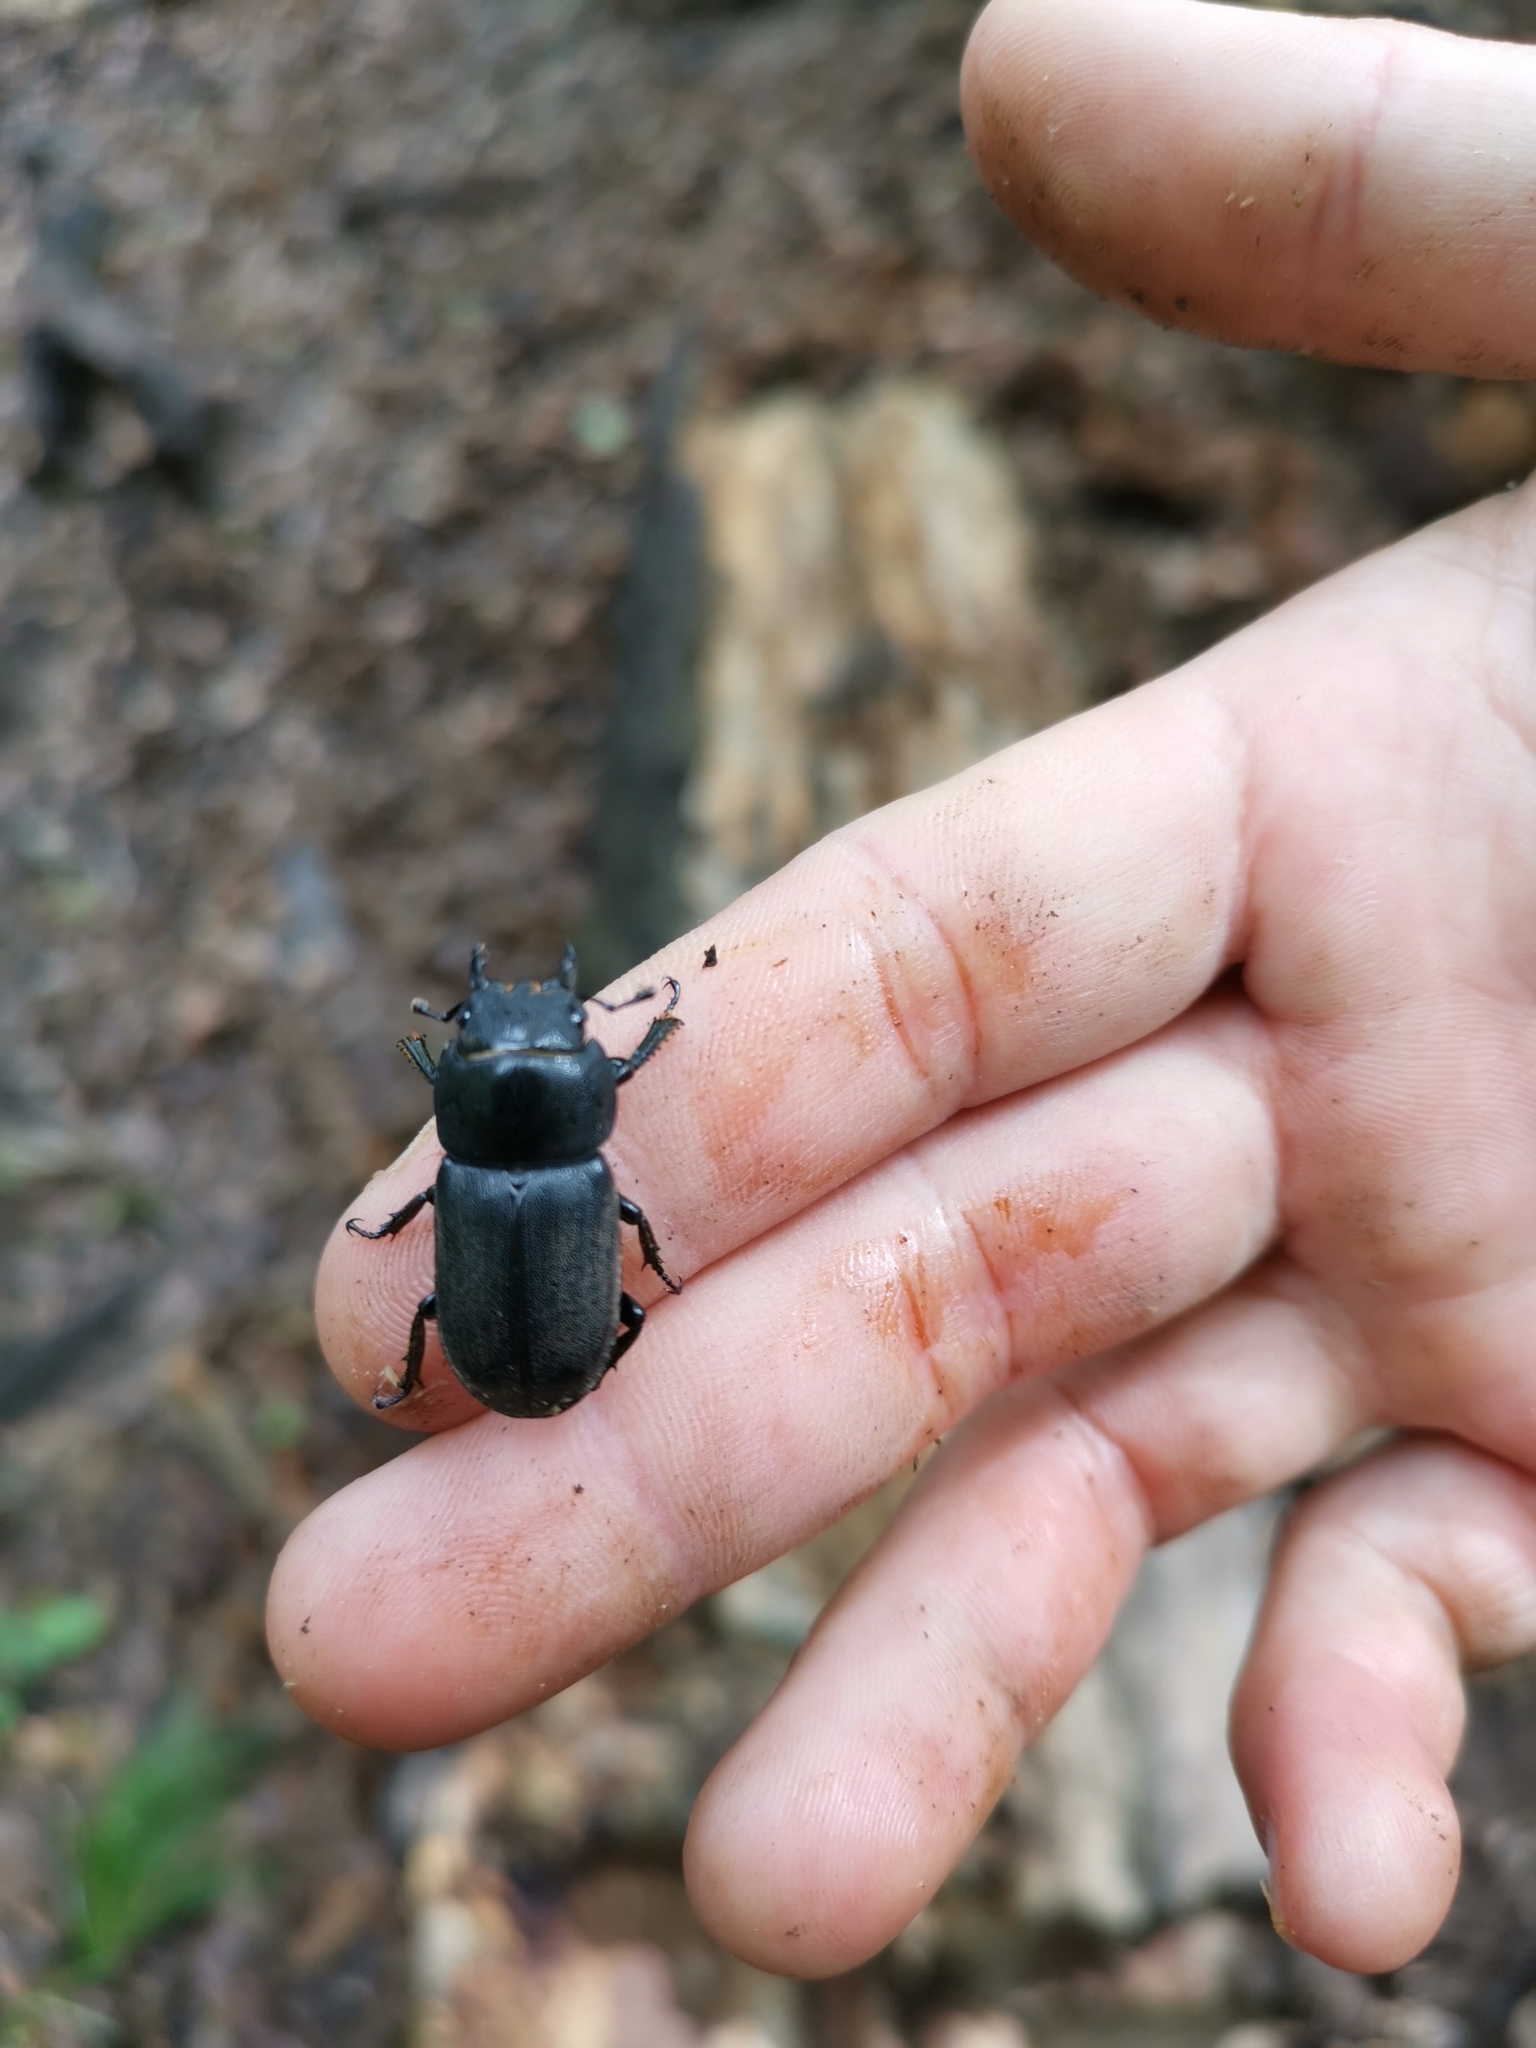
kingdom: Animalia
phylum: Arthropoda
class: Insecta
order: Coleoptera
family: Lucanidae
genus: Dorcus
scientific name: Dorcus parallelipipedus
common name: Lesser stag beetle
